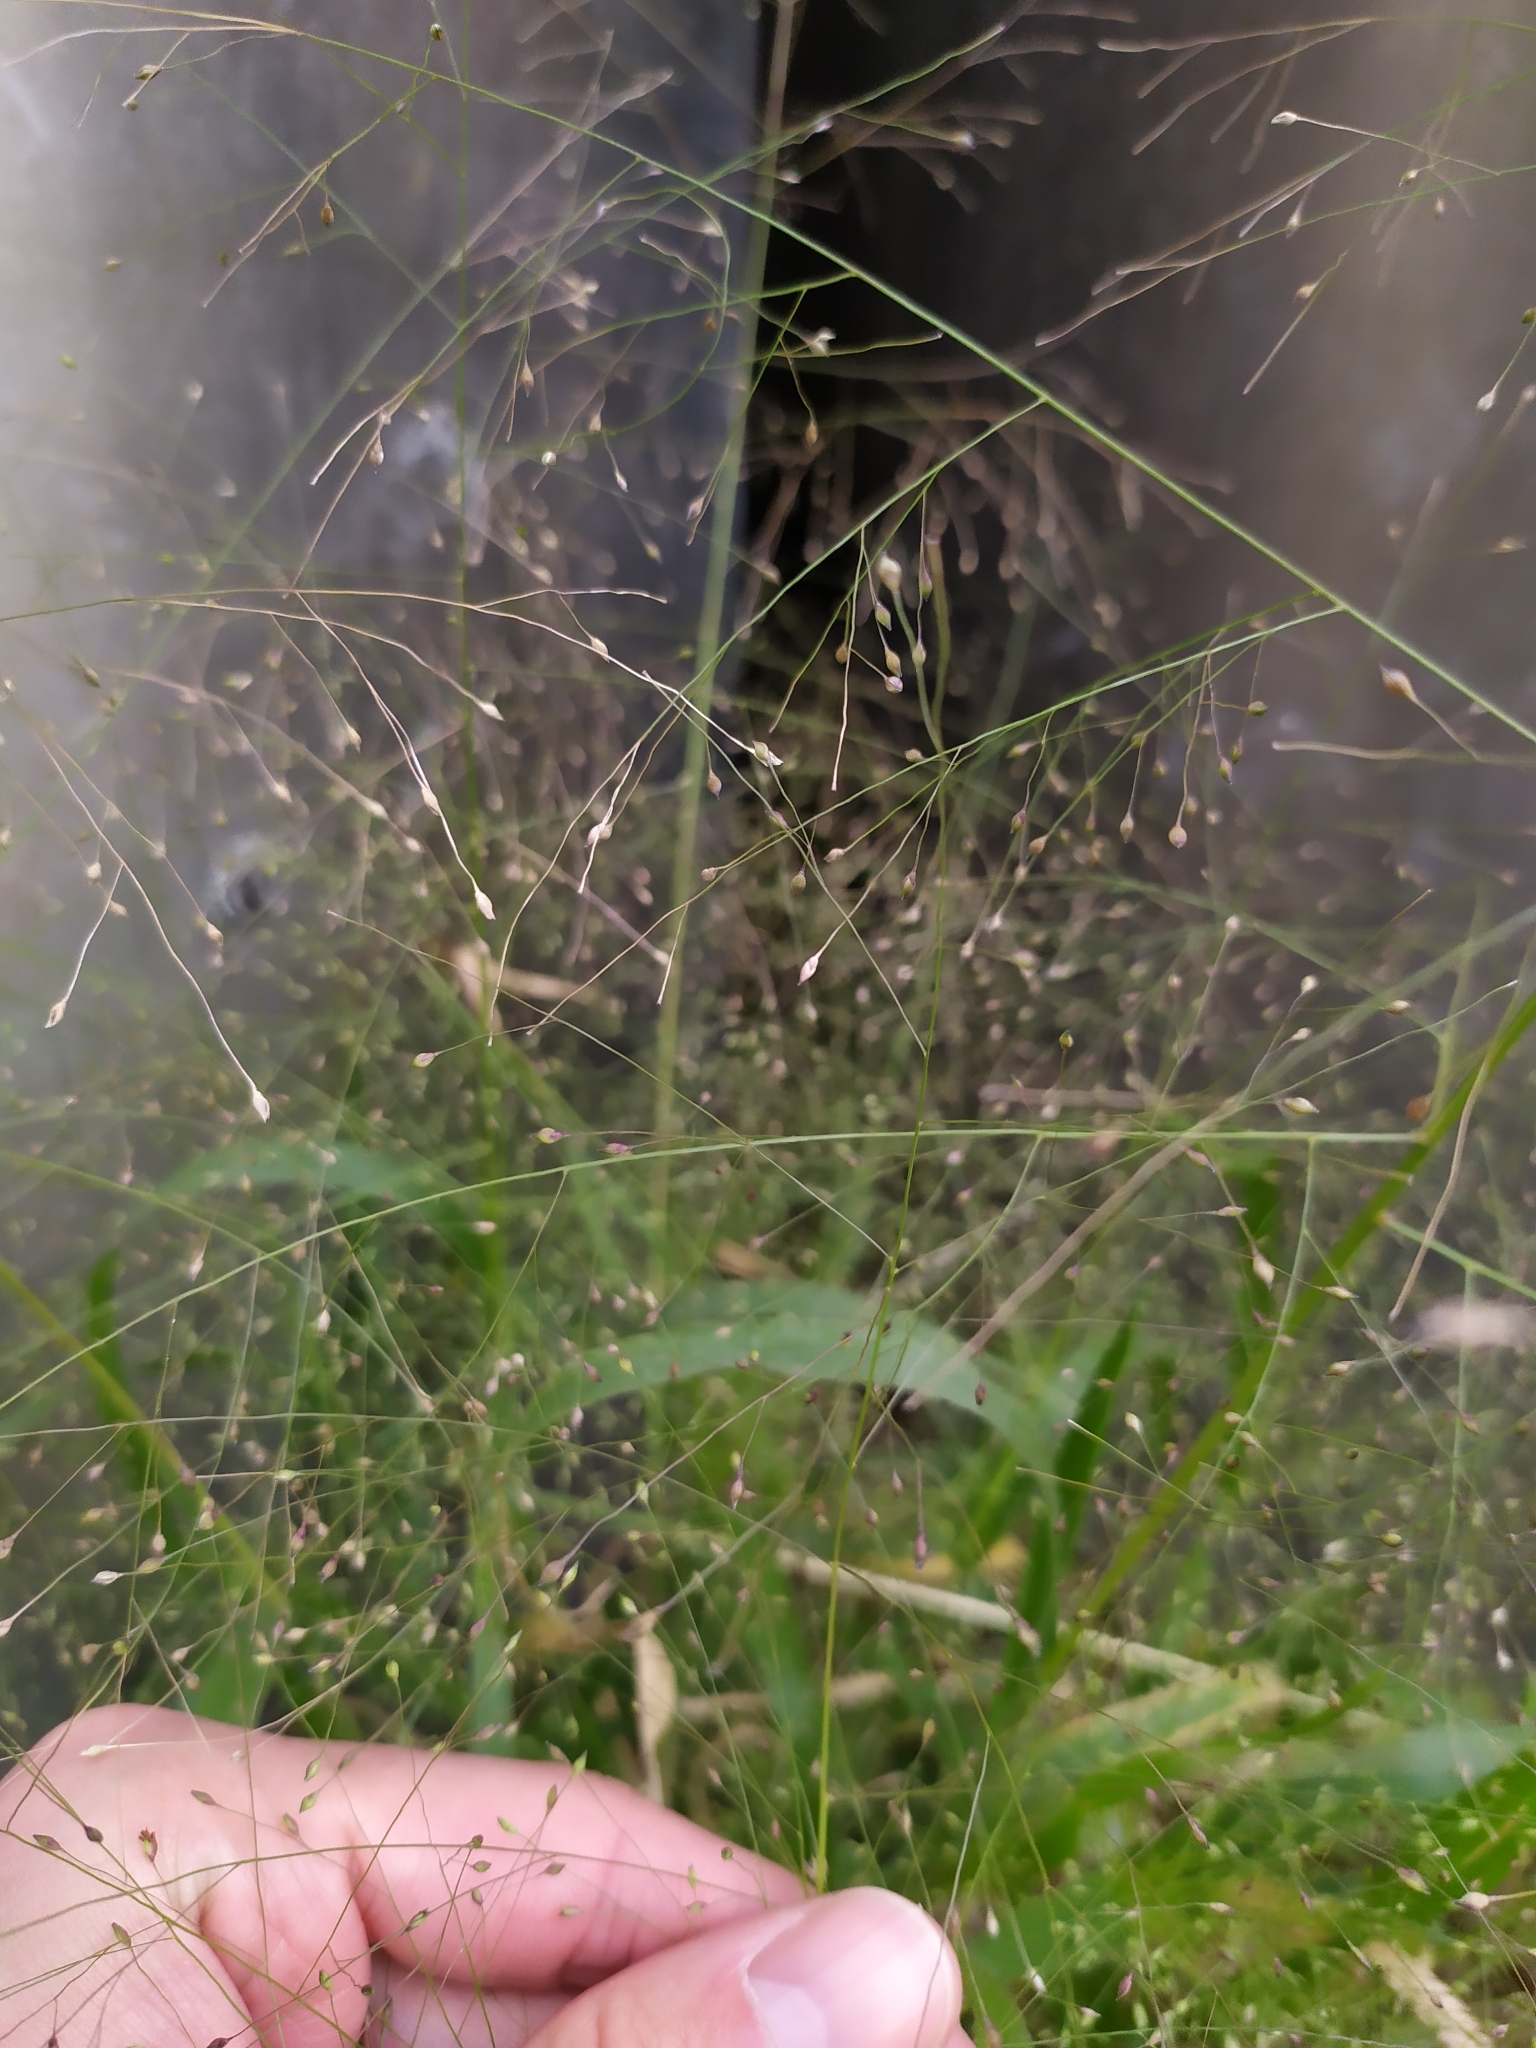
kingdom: Plantae
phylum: Tracheophyta
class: Liliopsida
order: Poales
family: Poaceae
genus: Panicum
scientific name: Panicum capillare
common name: Witch-grass
